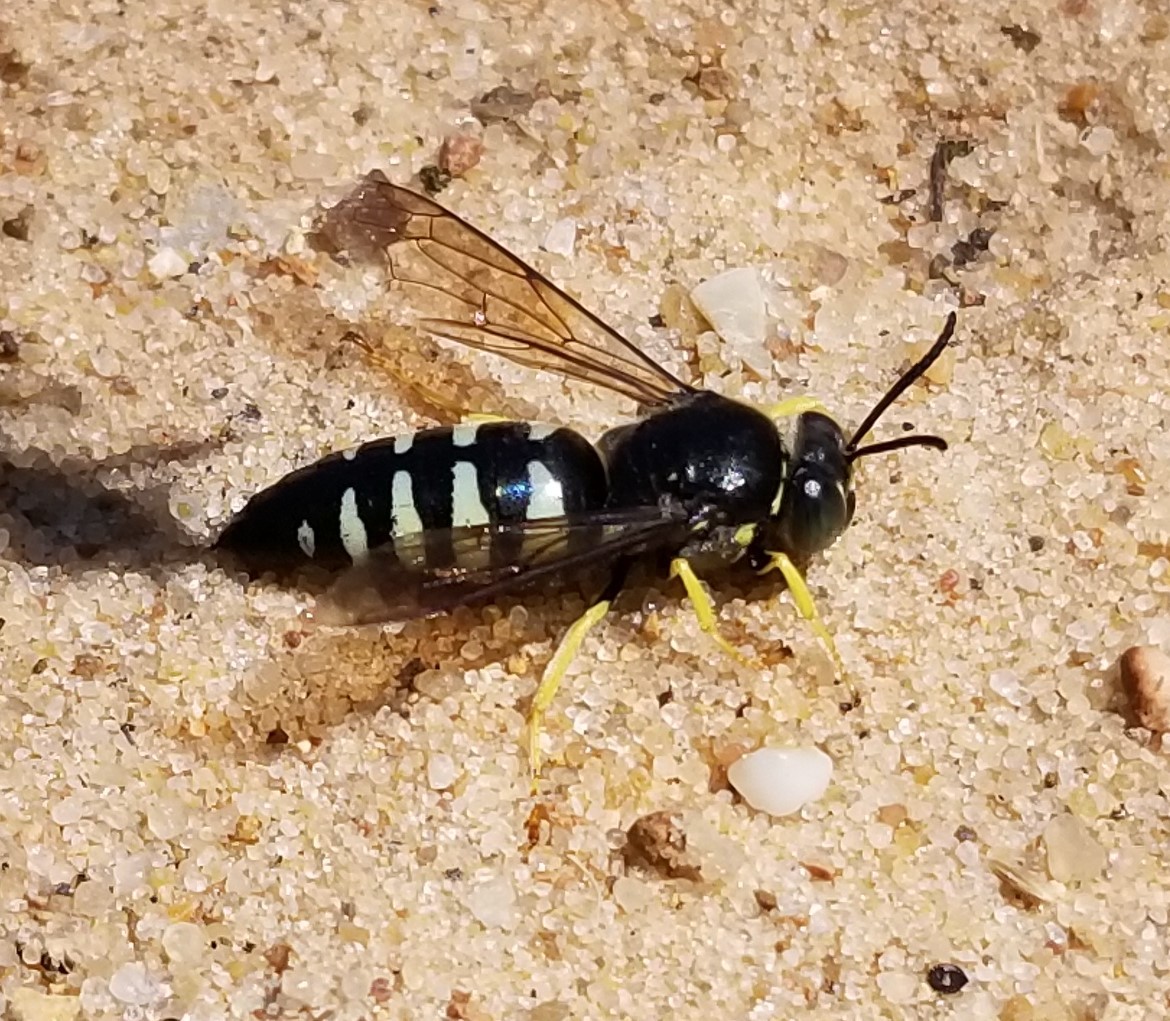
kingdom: Animalia
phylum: Arthropoda
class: Insecta
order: Hymenoptera
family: Crabronidae
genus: Bicyrtes
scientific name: Bicyrtes quadrifasciatus
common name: Four-banded stink bug hunter wasp
